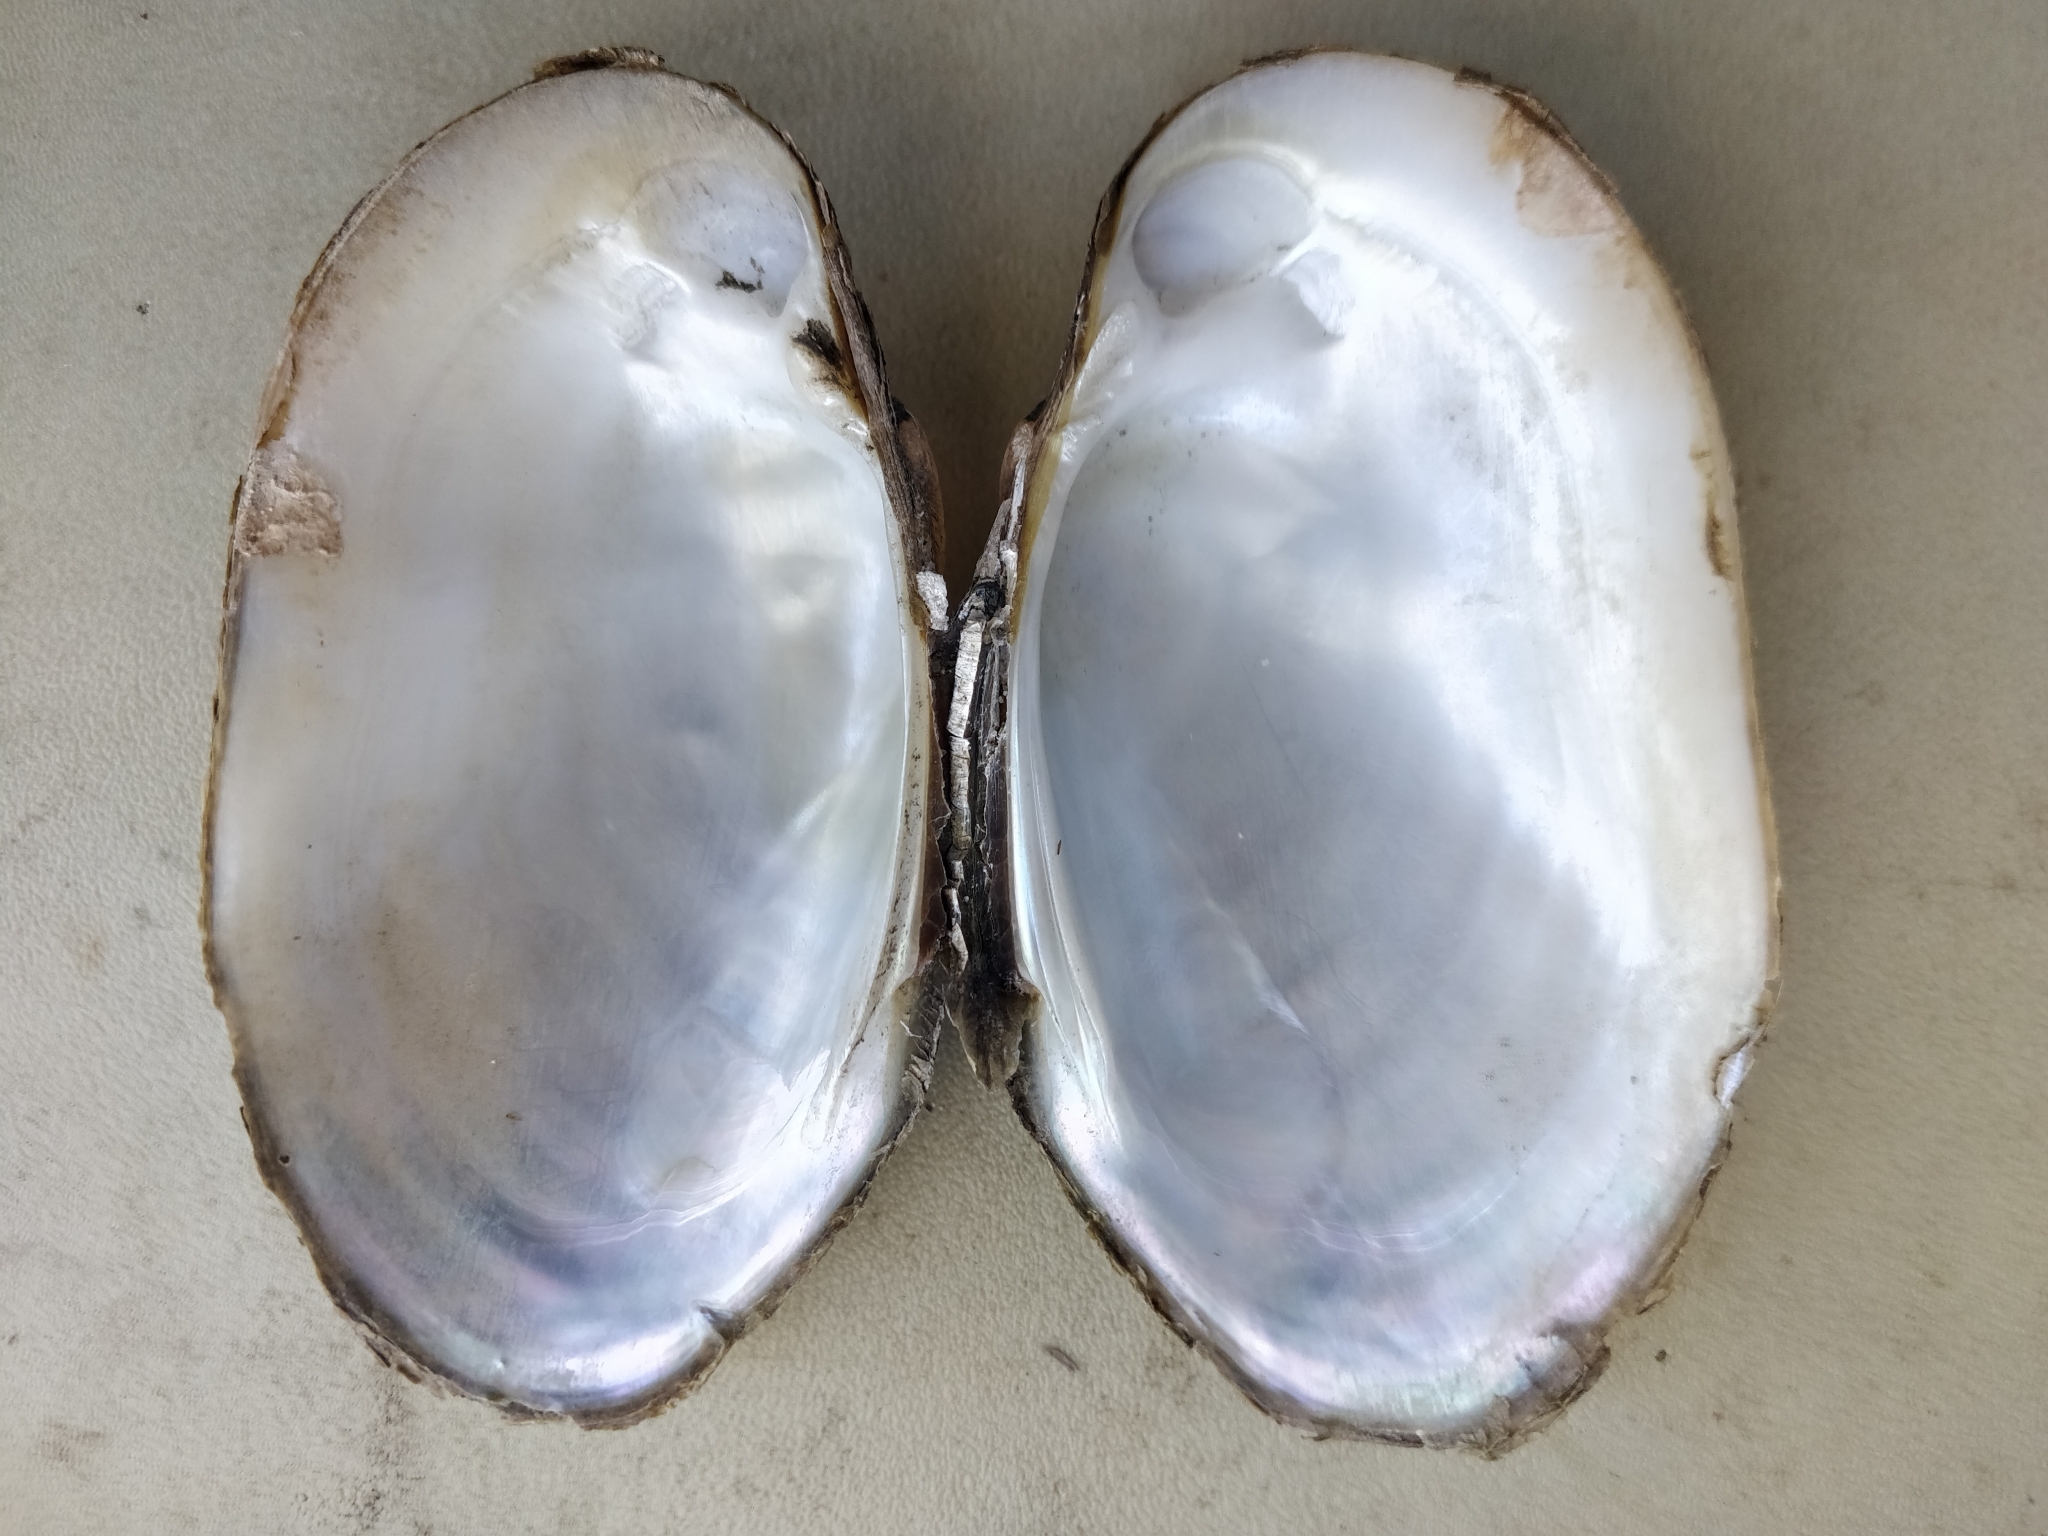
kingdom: Animalia
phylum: Mollusca
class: Bivalvia
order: Unionida
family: Unionidae
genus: Lampsilis
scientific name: Lampsilis siliquoidea
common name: Fatmucket
